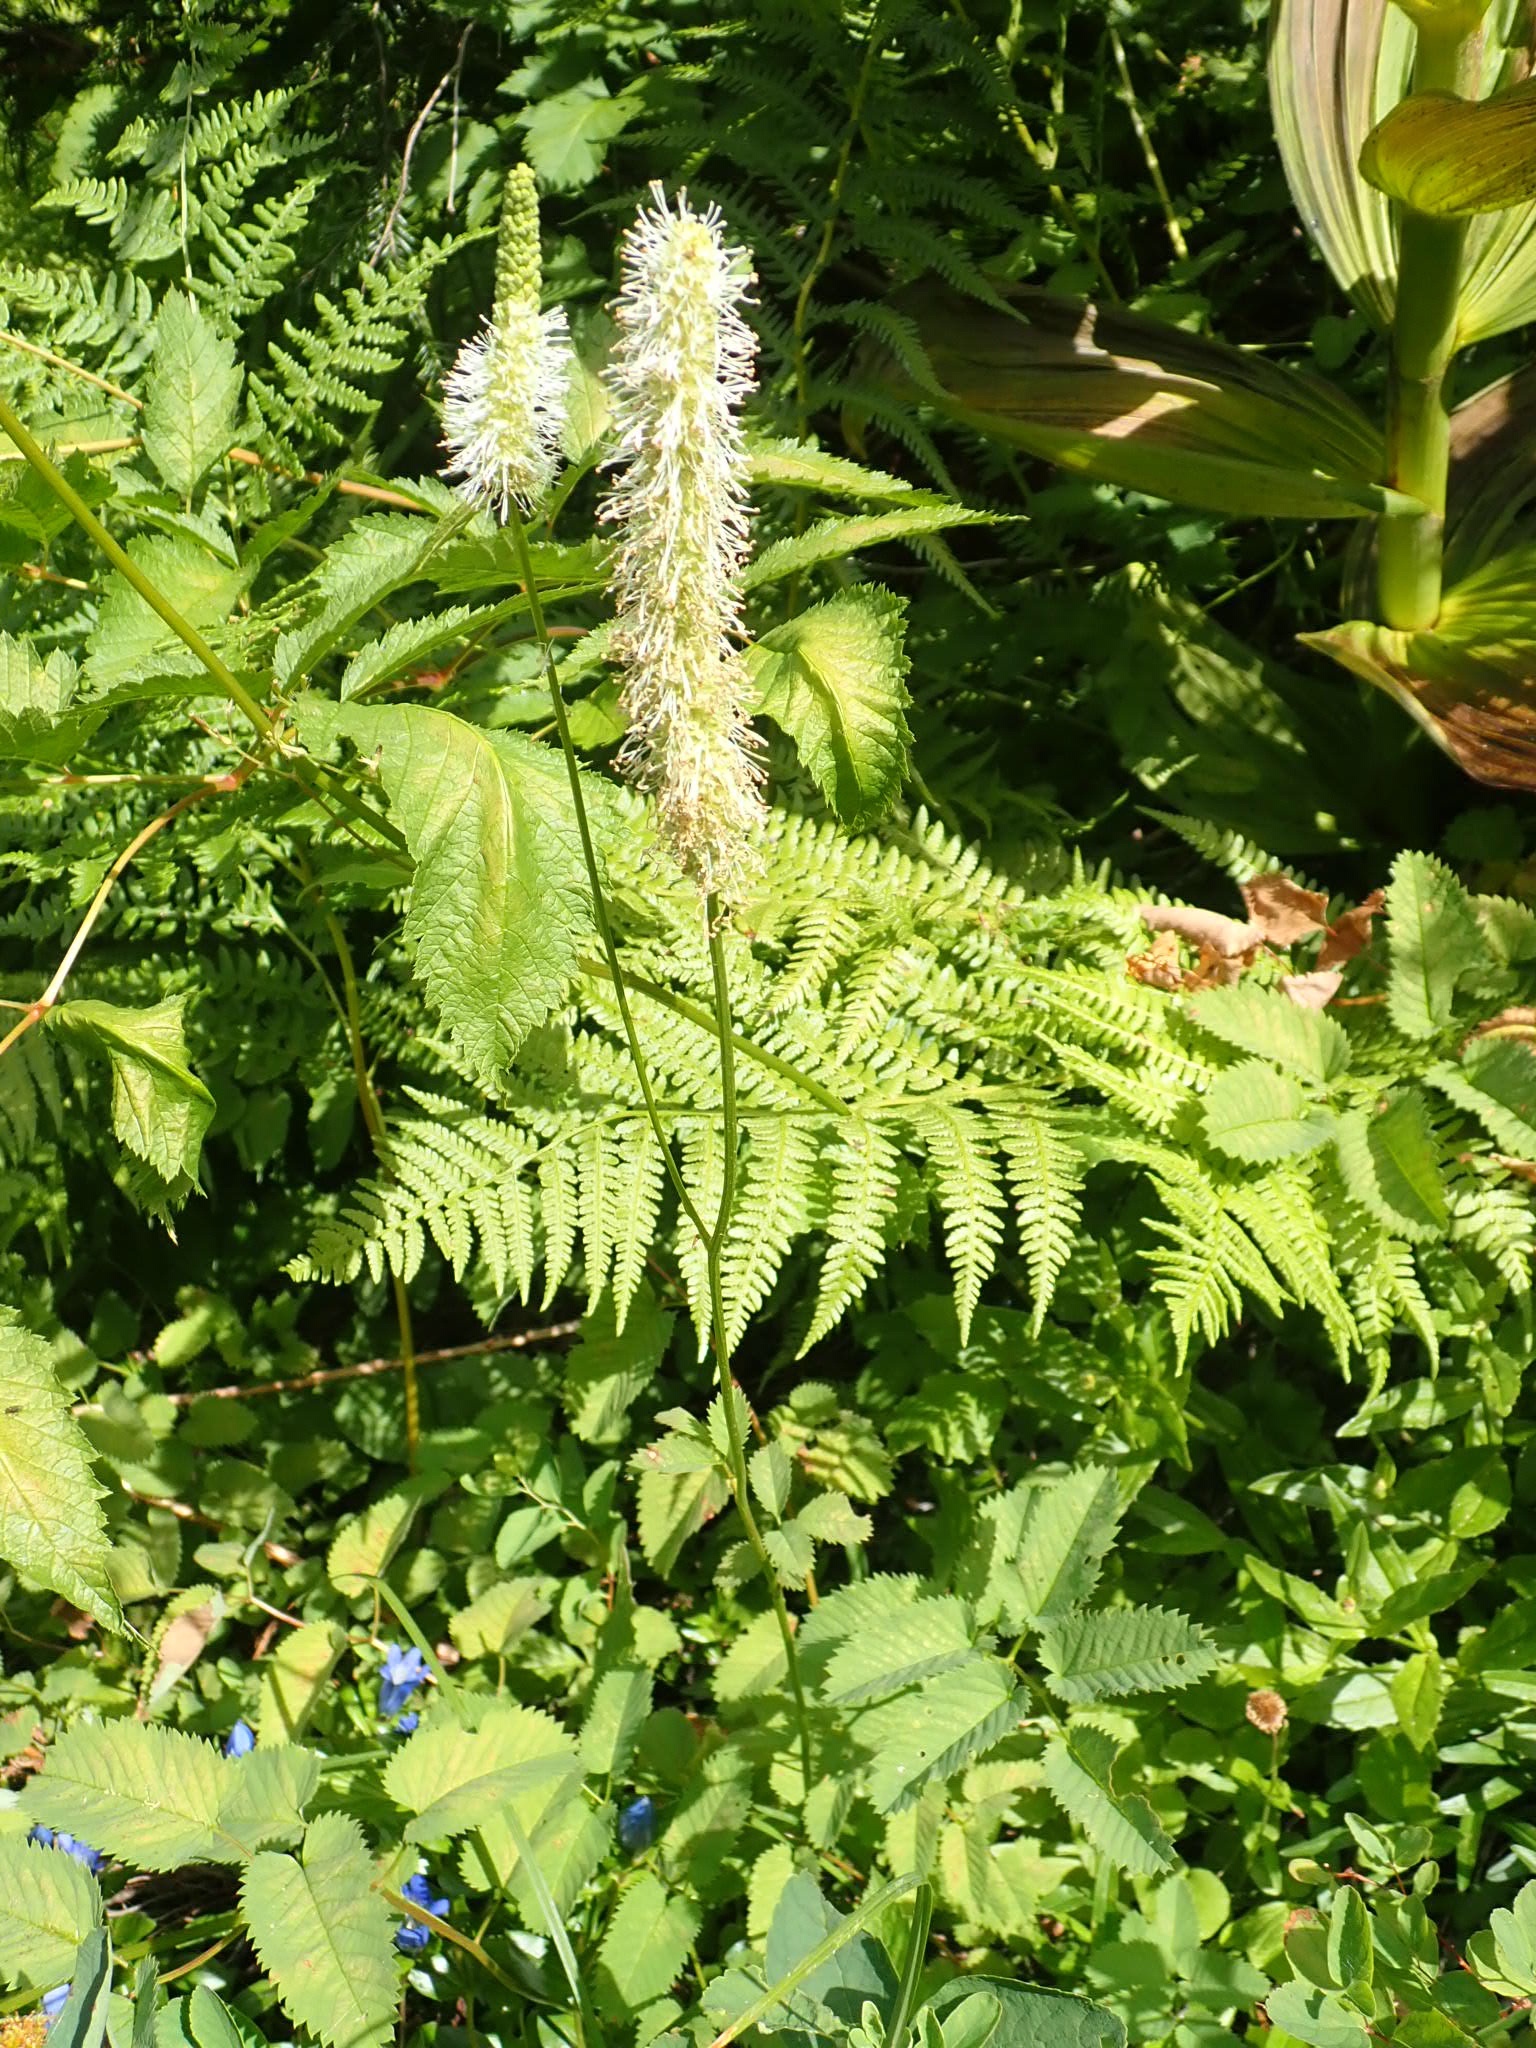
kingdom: Plantae
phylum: Tracheophyta
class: Magnoliopsida
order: Rosales
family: Rosaceae
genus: Sanguisorba
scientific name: Sanguisorba stipulata
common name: Sitka burnet
